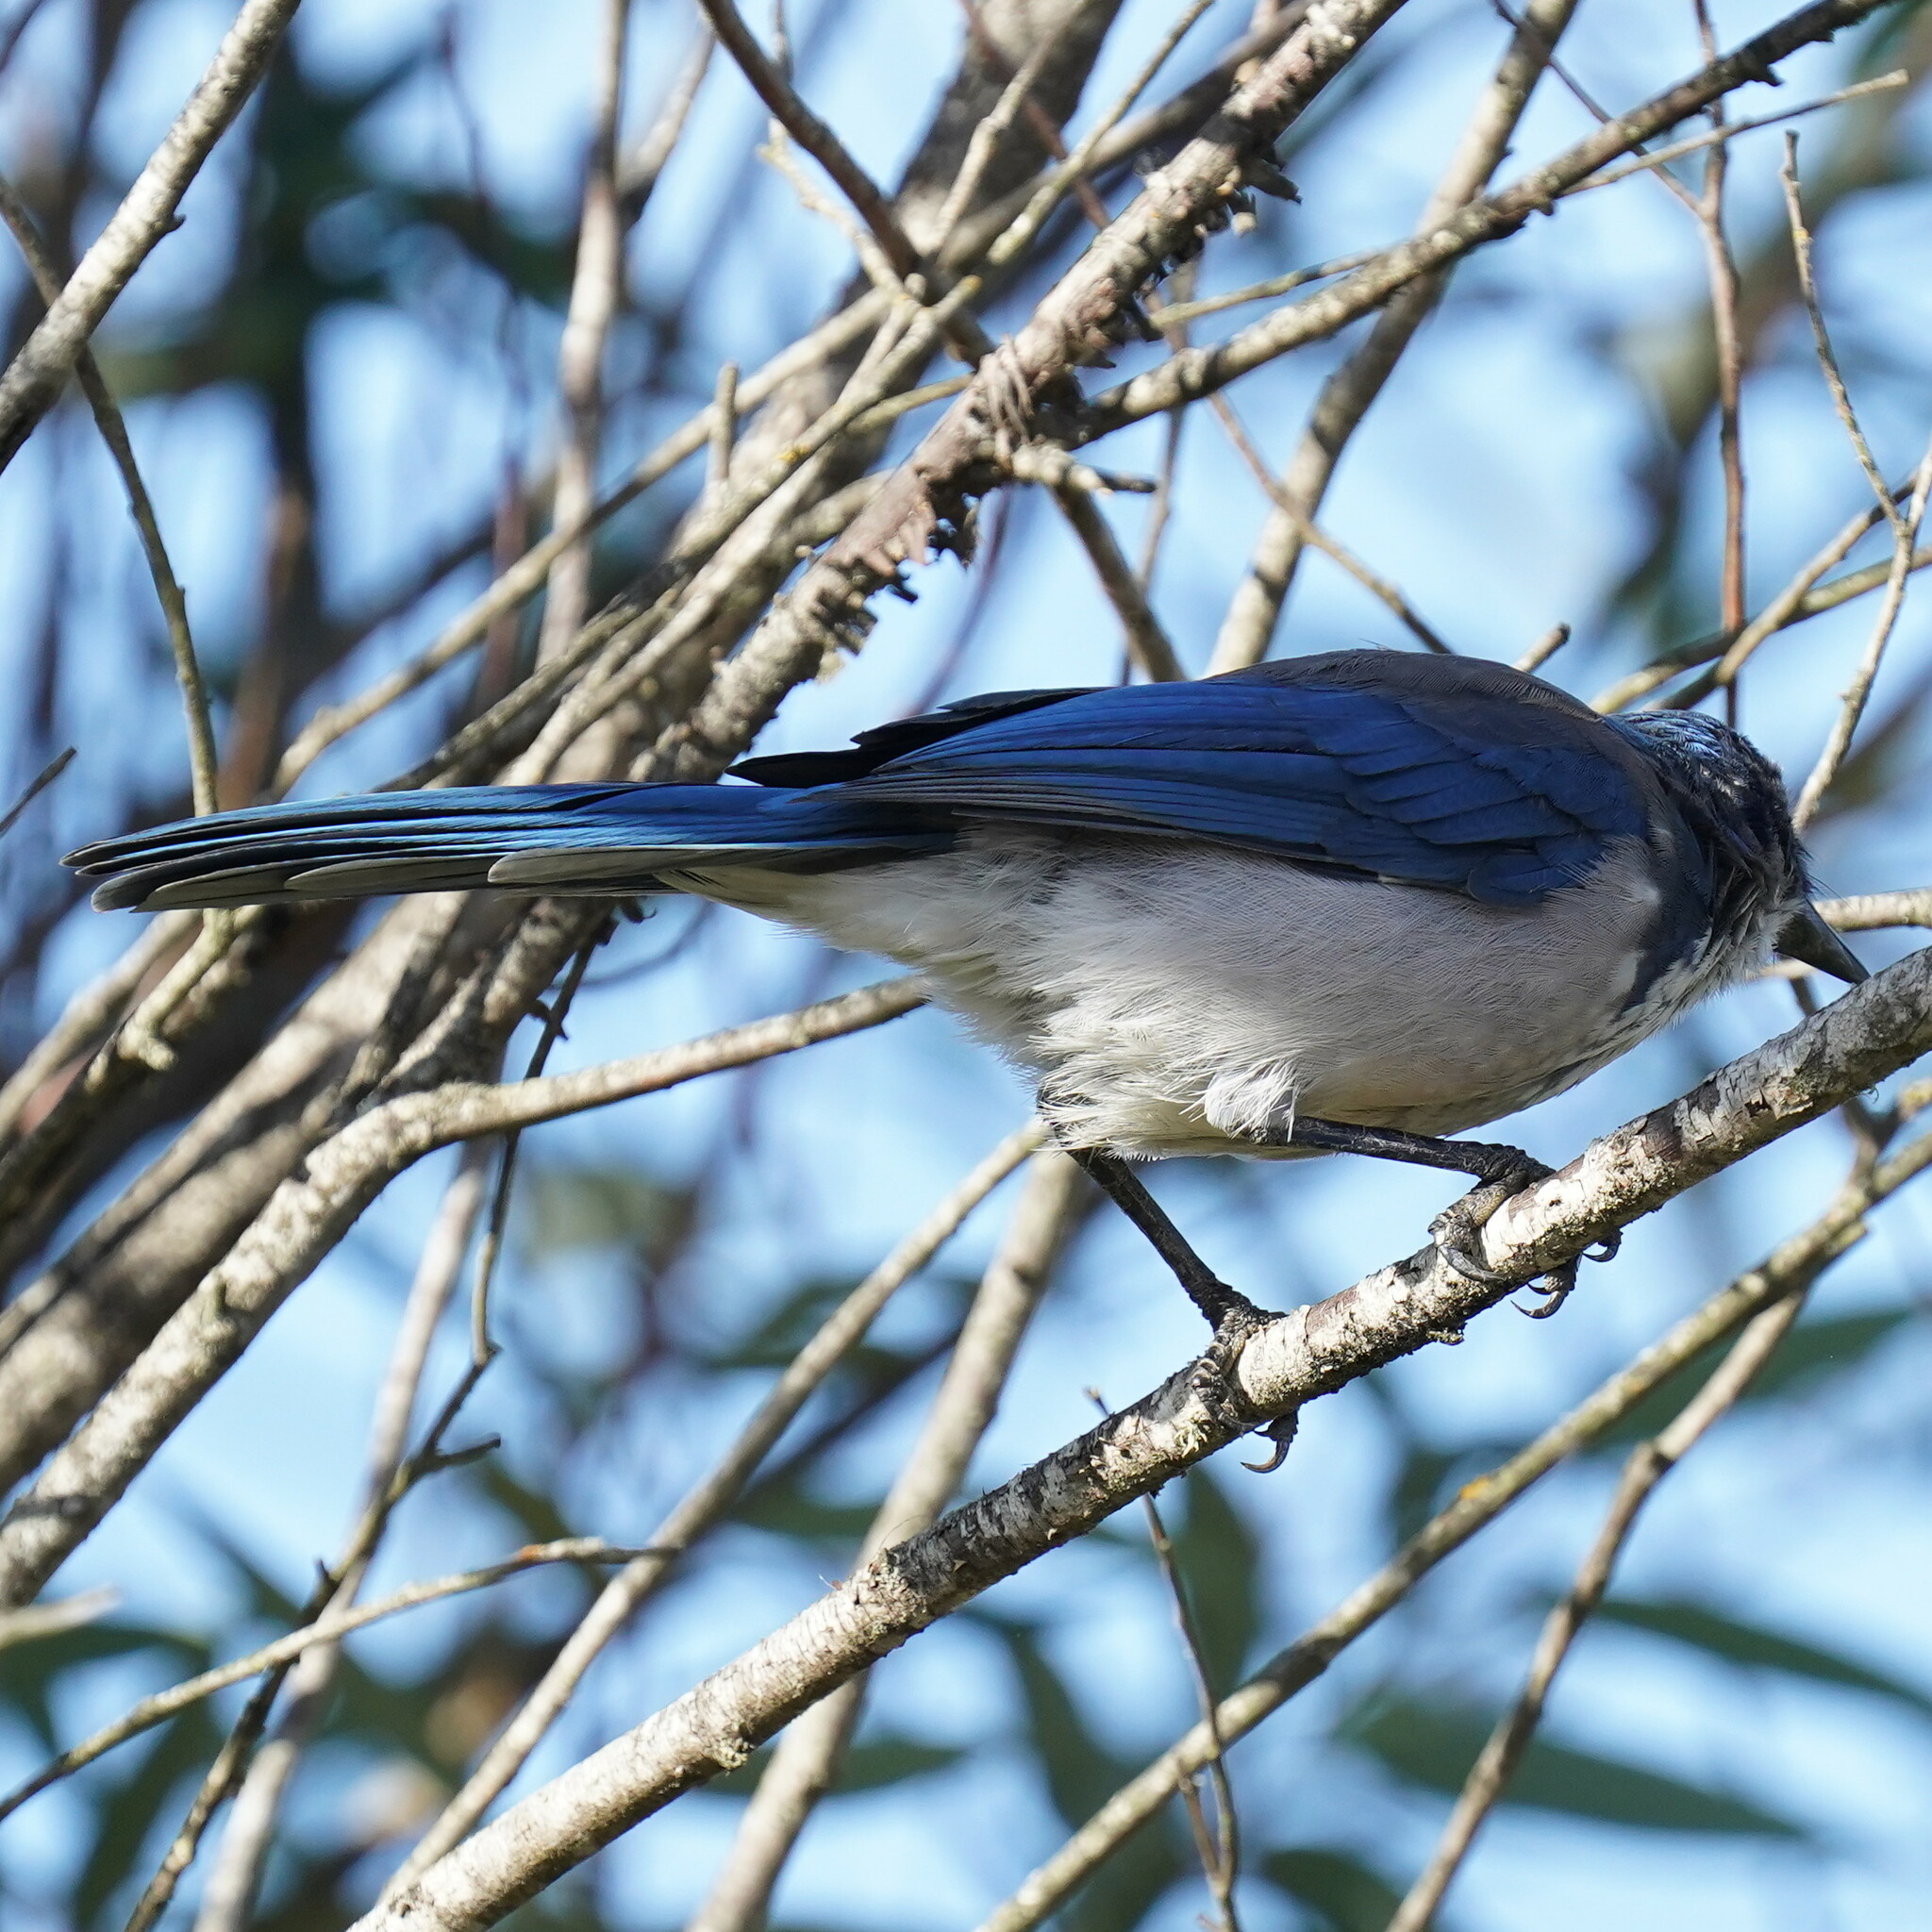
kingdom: Animalia
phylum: Chordata
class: Aves
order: Passeriformes
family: Corvidae
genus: Aphelocoma
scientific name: Aphelocoma californica
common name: California scrub-jay
